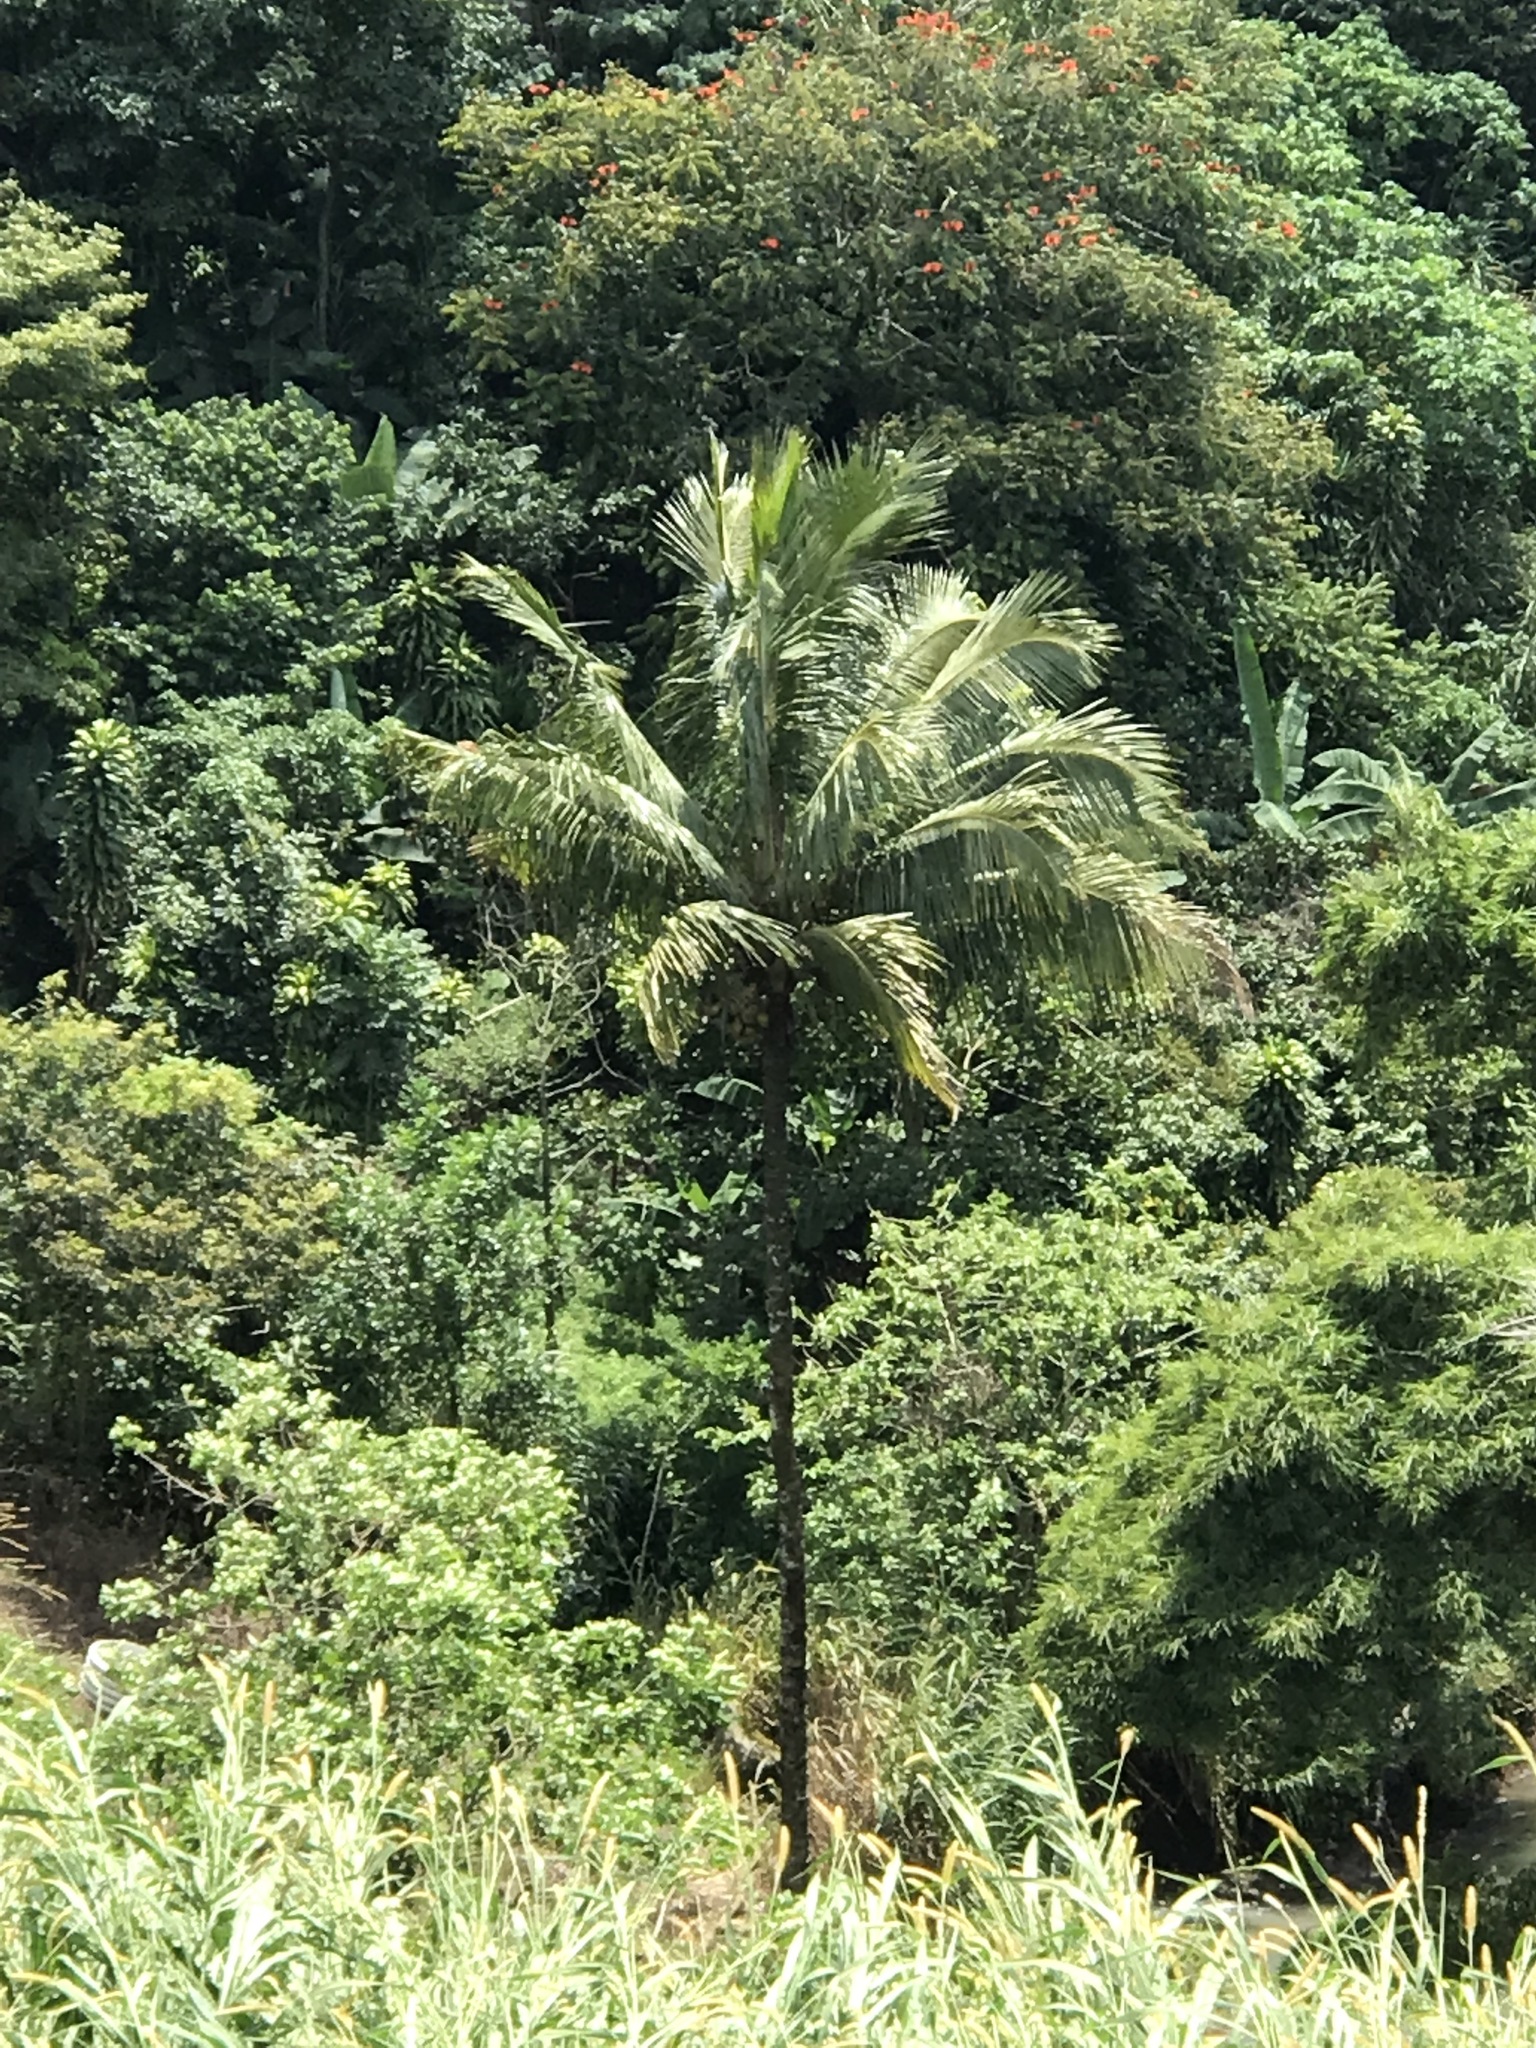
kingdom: Plantae
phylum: Tracheophyta
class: Liliopsida
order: Arecales
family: Arecaceae
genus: Cocos
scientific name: Cocos nucifera
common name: Coconut palm
